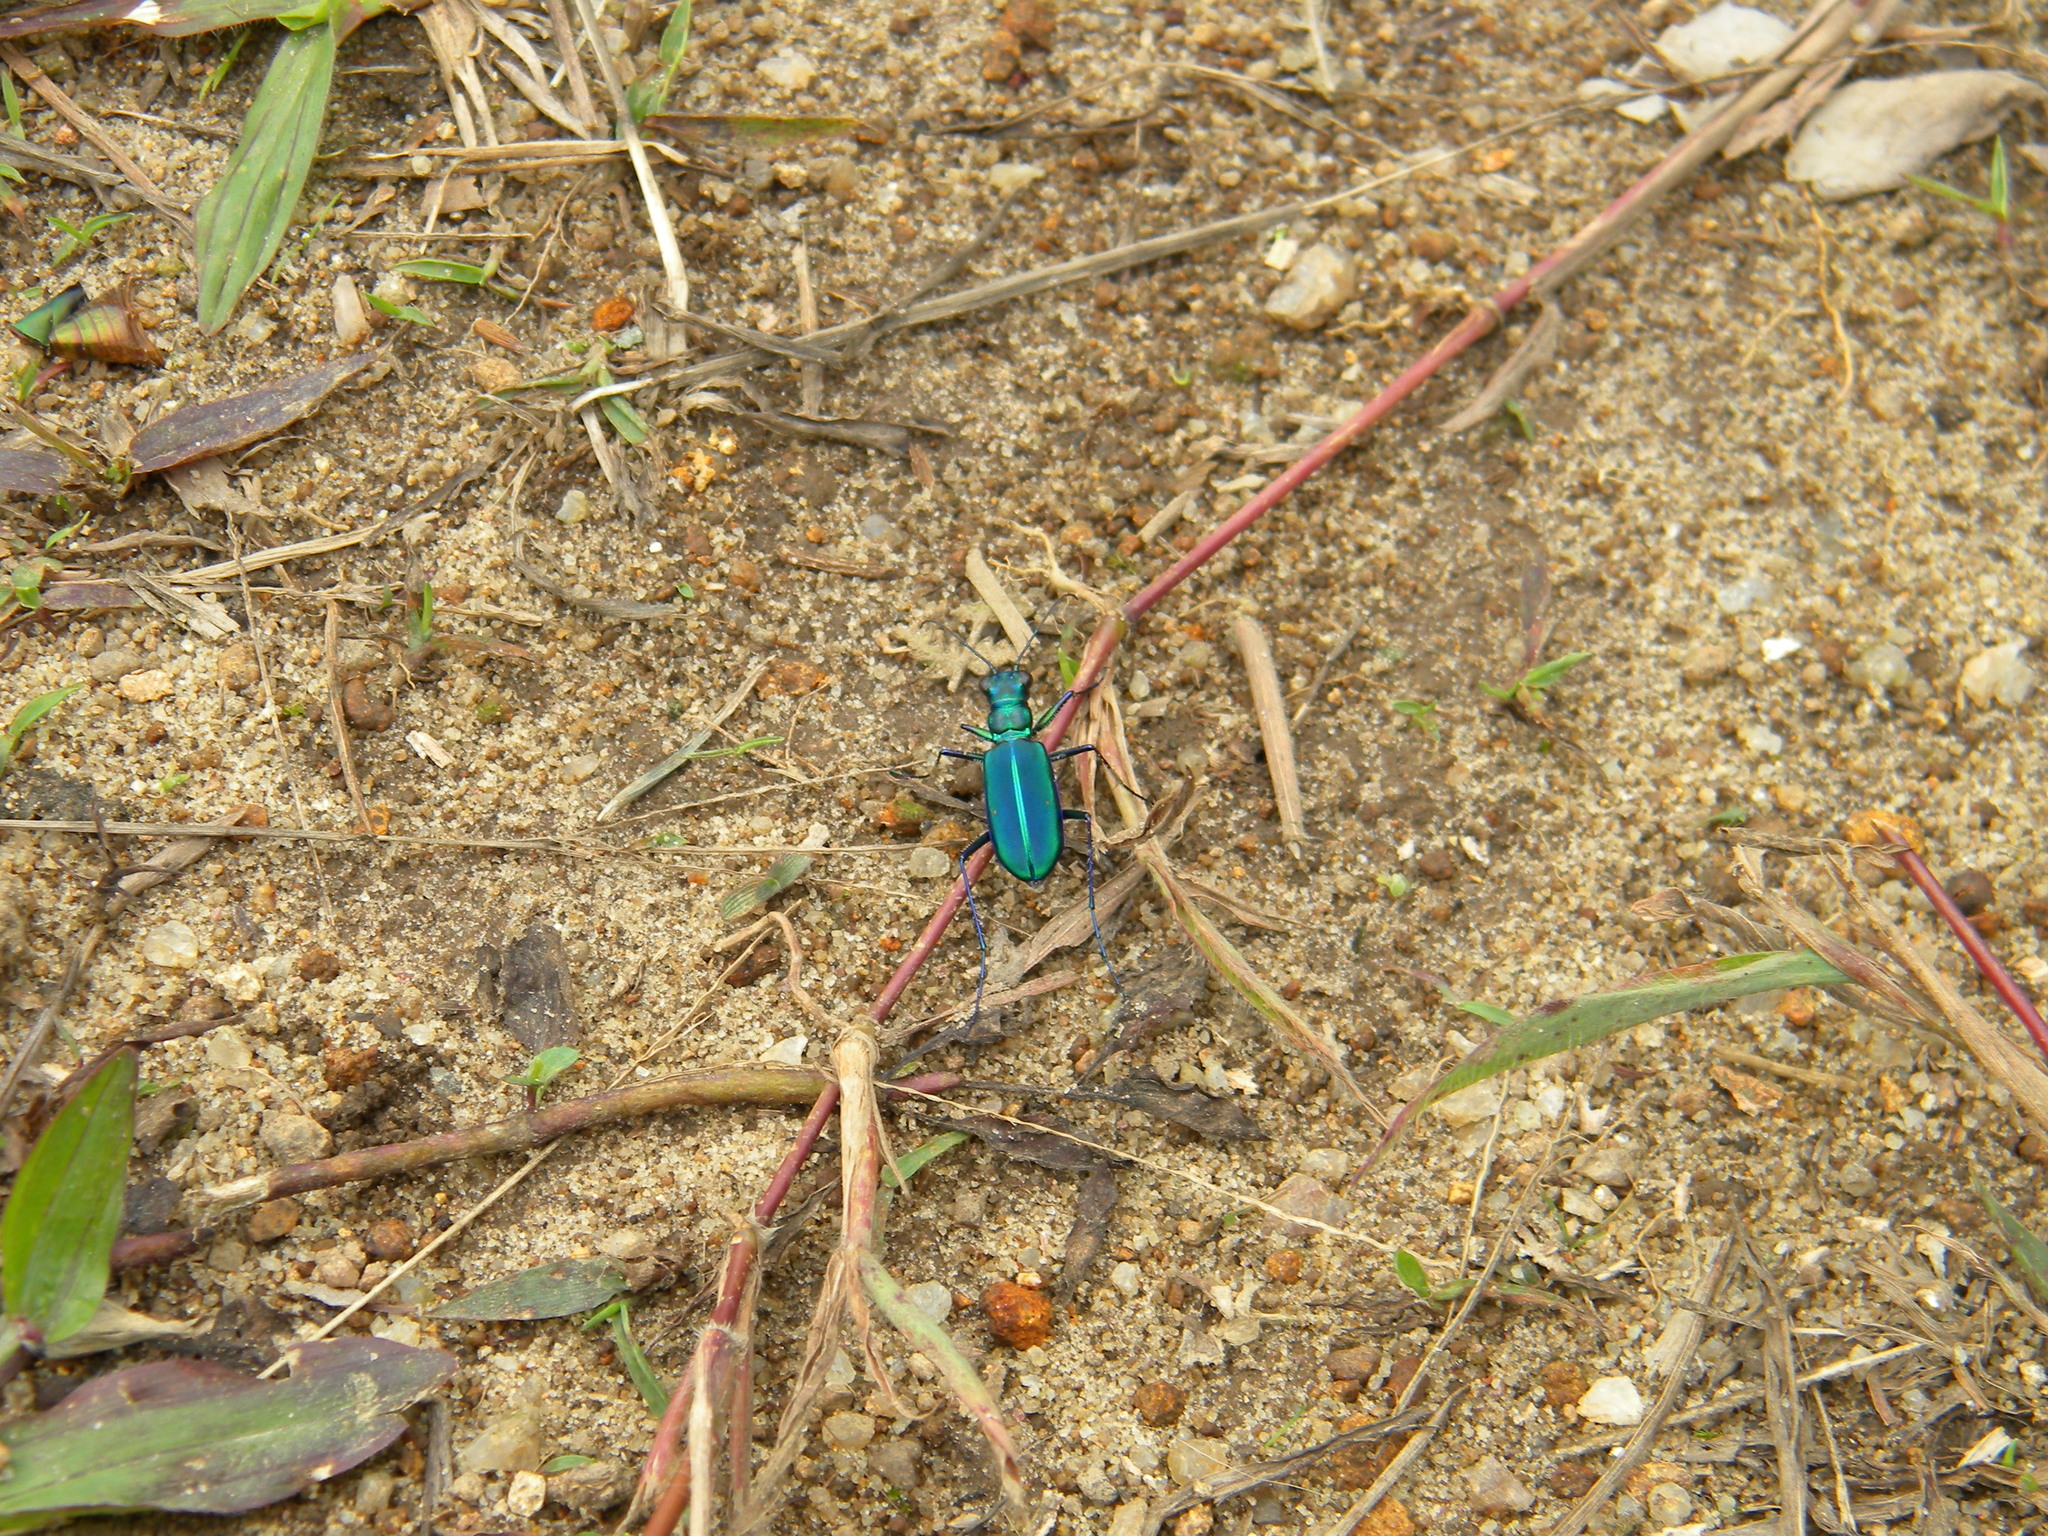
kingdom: Animalia
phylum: Arthropoda
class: Insecta
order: Coleoptera
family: Carabidae
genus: Cicindela
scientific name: Cicindela whithillii
